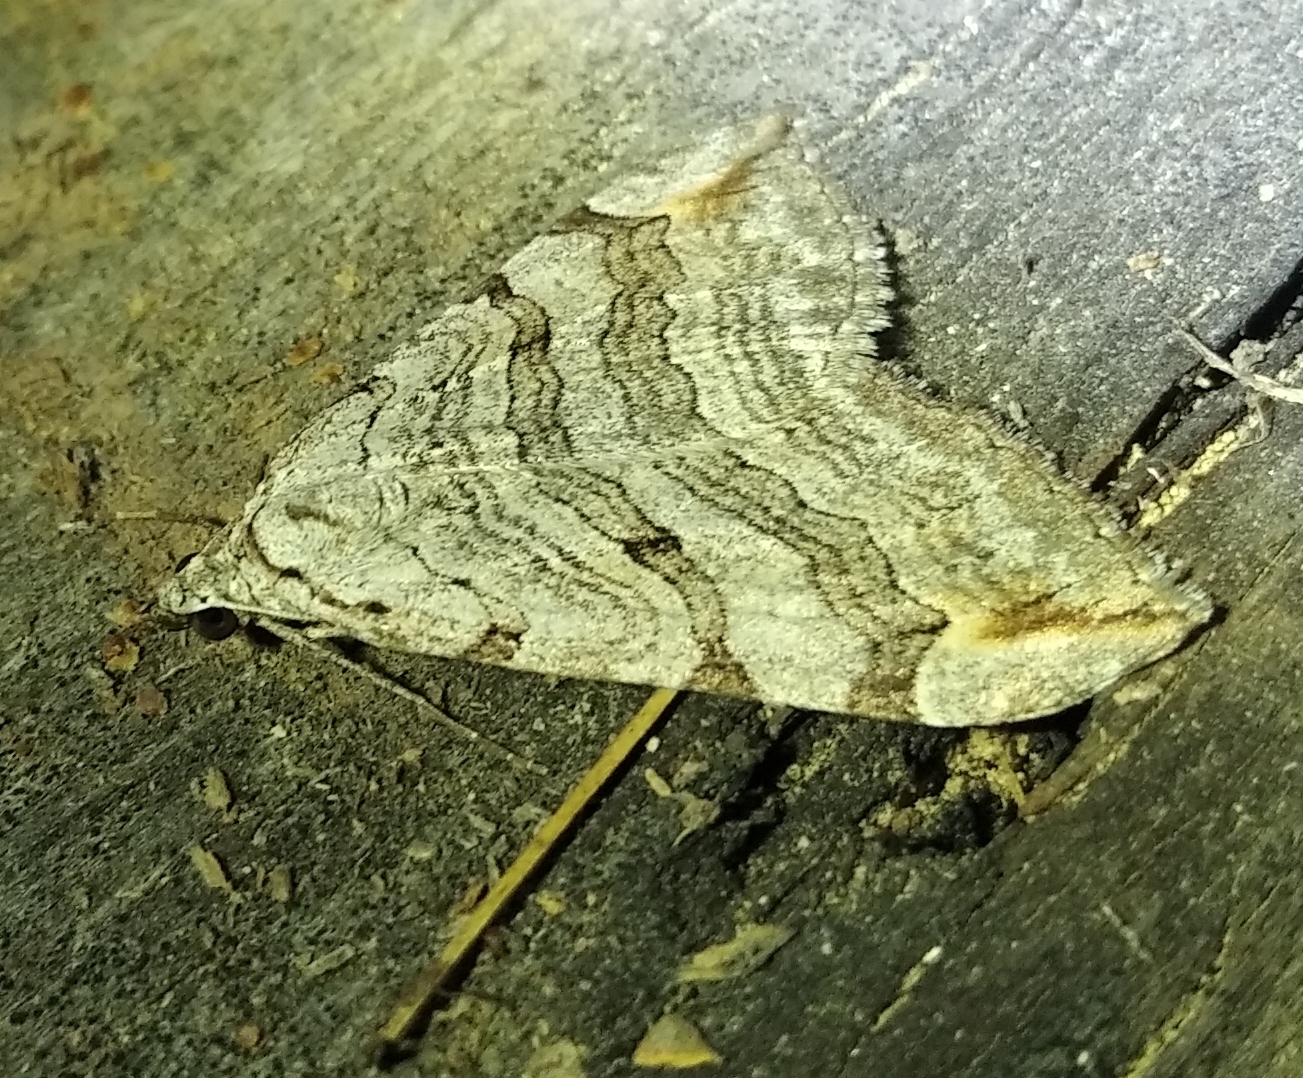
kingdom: Animalia
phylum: Arthropoda
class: Insecta
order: Lepidoptera
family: Geometridae
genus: Aplocera
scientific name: Aplocera plagiata
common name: Treble-bar
